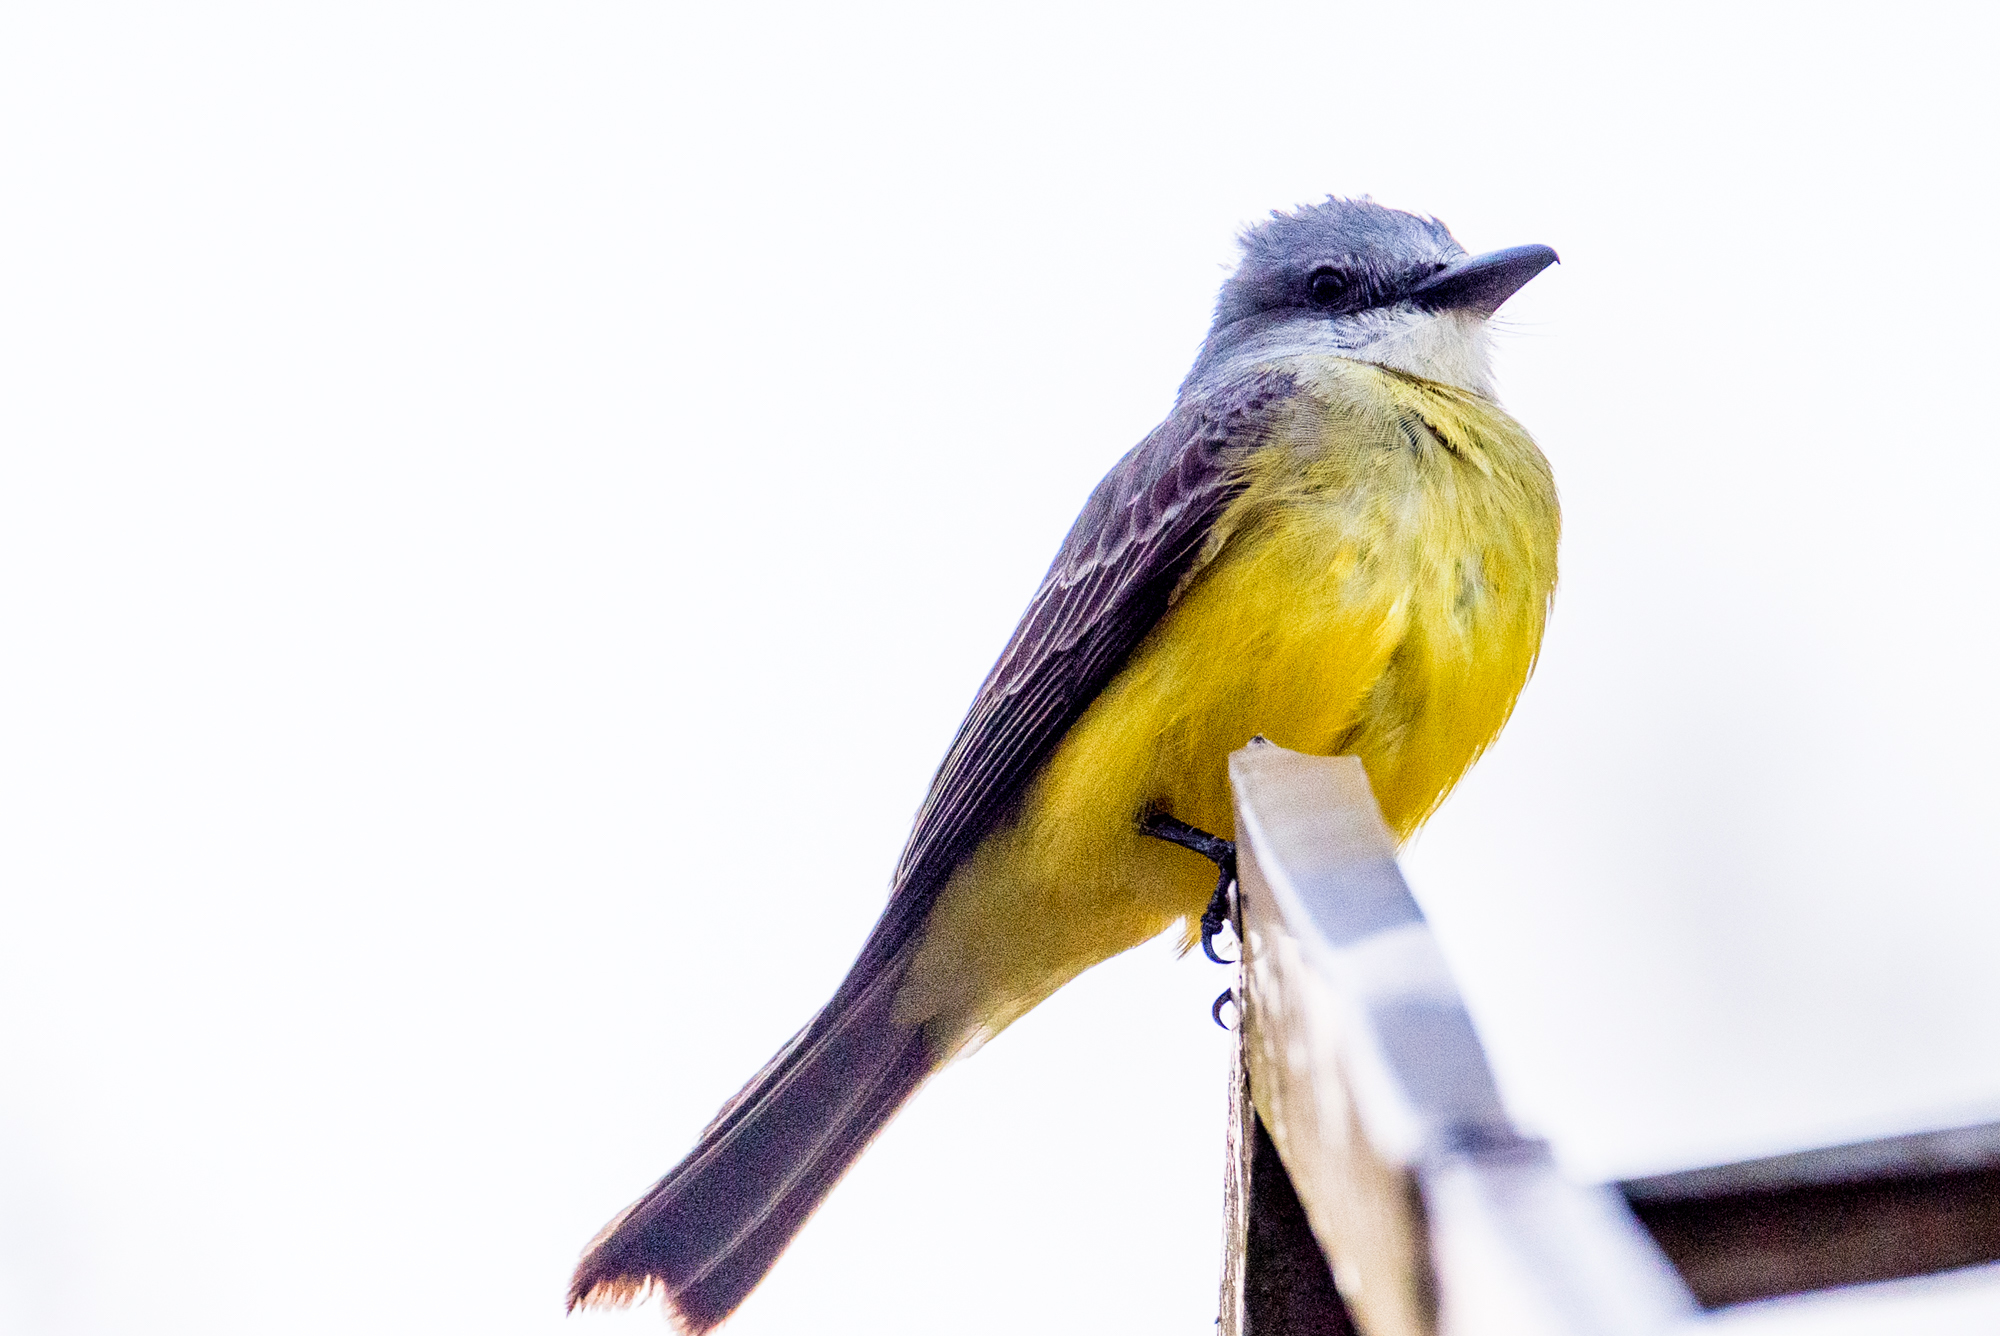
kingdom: Animalia
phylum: Chordata
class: Aves
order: Passeriformes
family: Tyrannidae
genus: Tyrannus
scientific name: Tyrannus melancholicus
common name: Tropical kingbird
